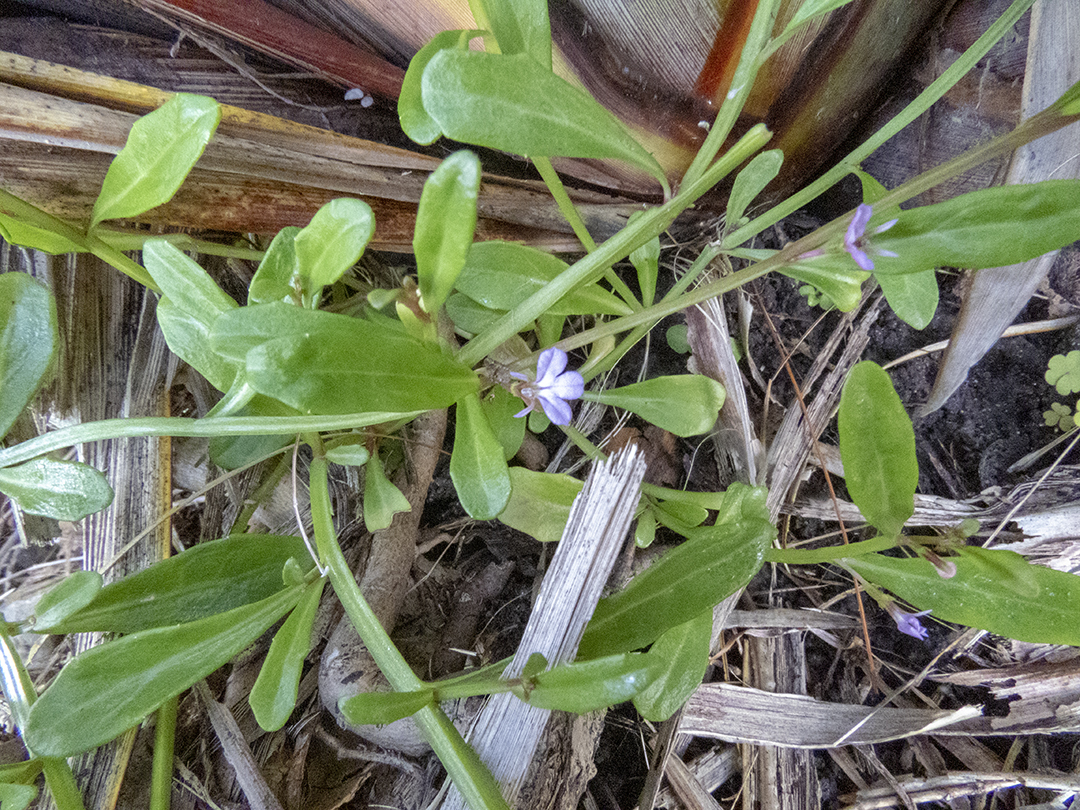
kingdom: Plantae
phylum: Tracheophyta
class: Magnoliopsida
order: Asterales
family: Campanulaceae
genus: Lobelia
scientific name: Lobelia anceps
